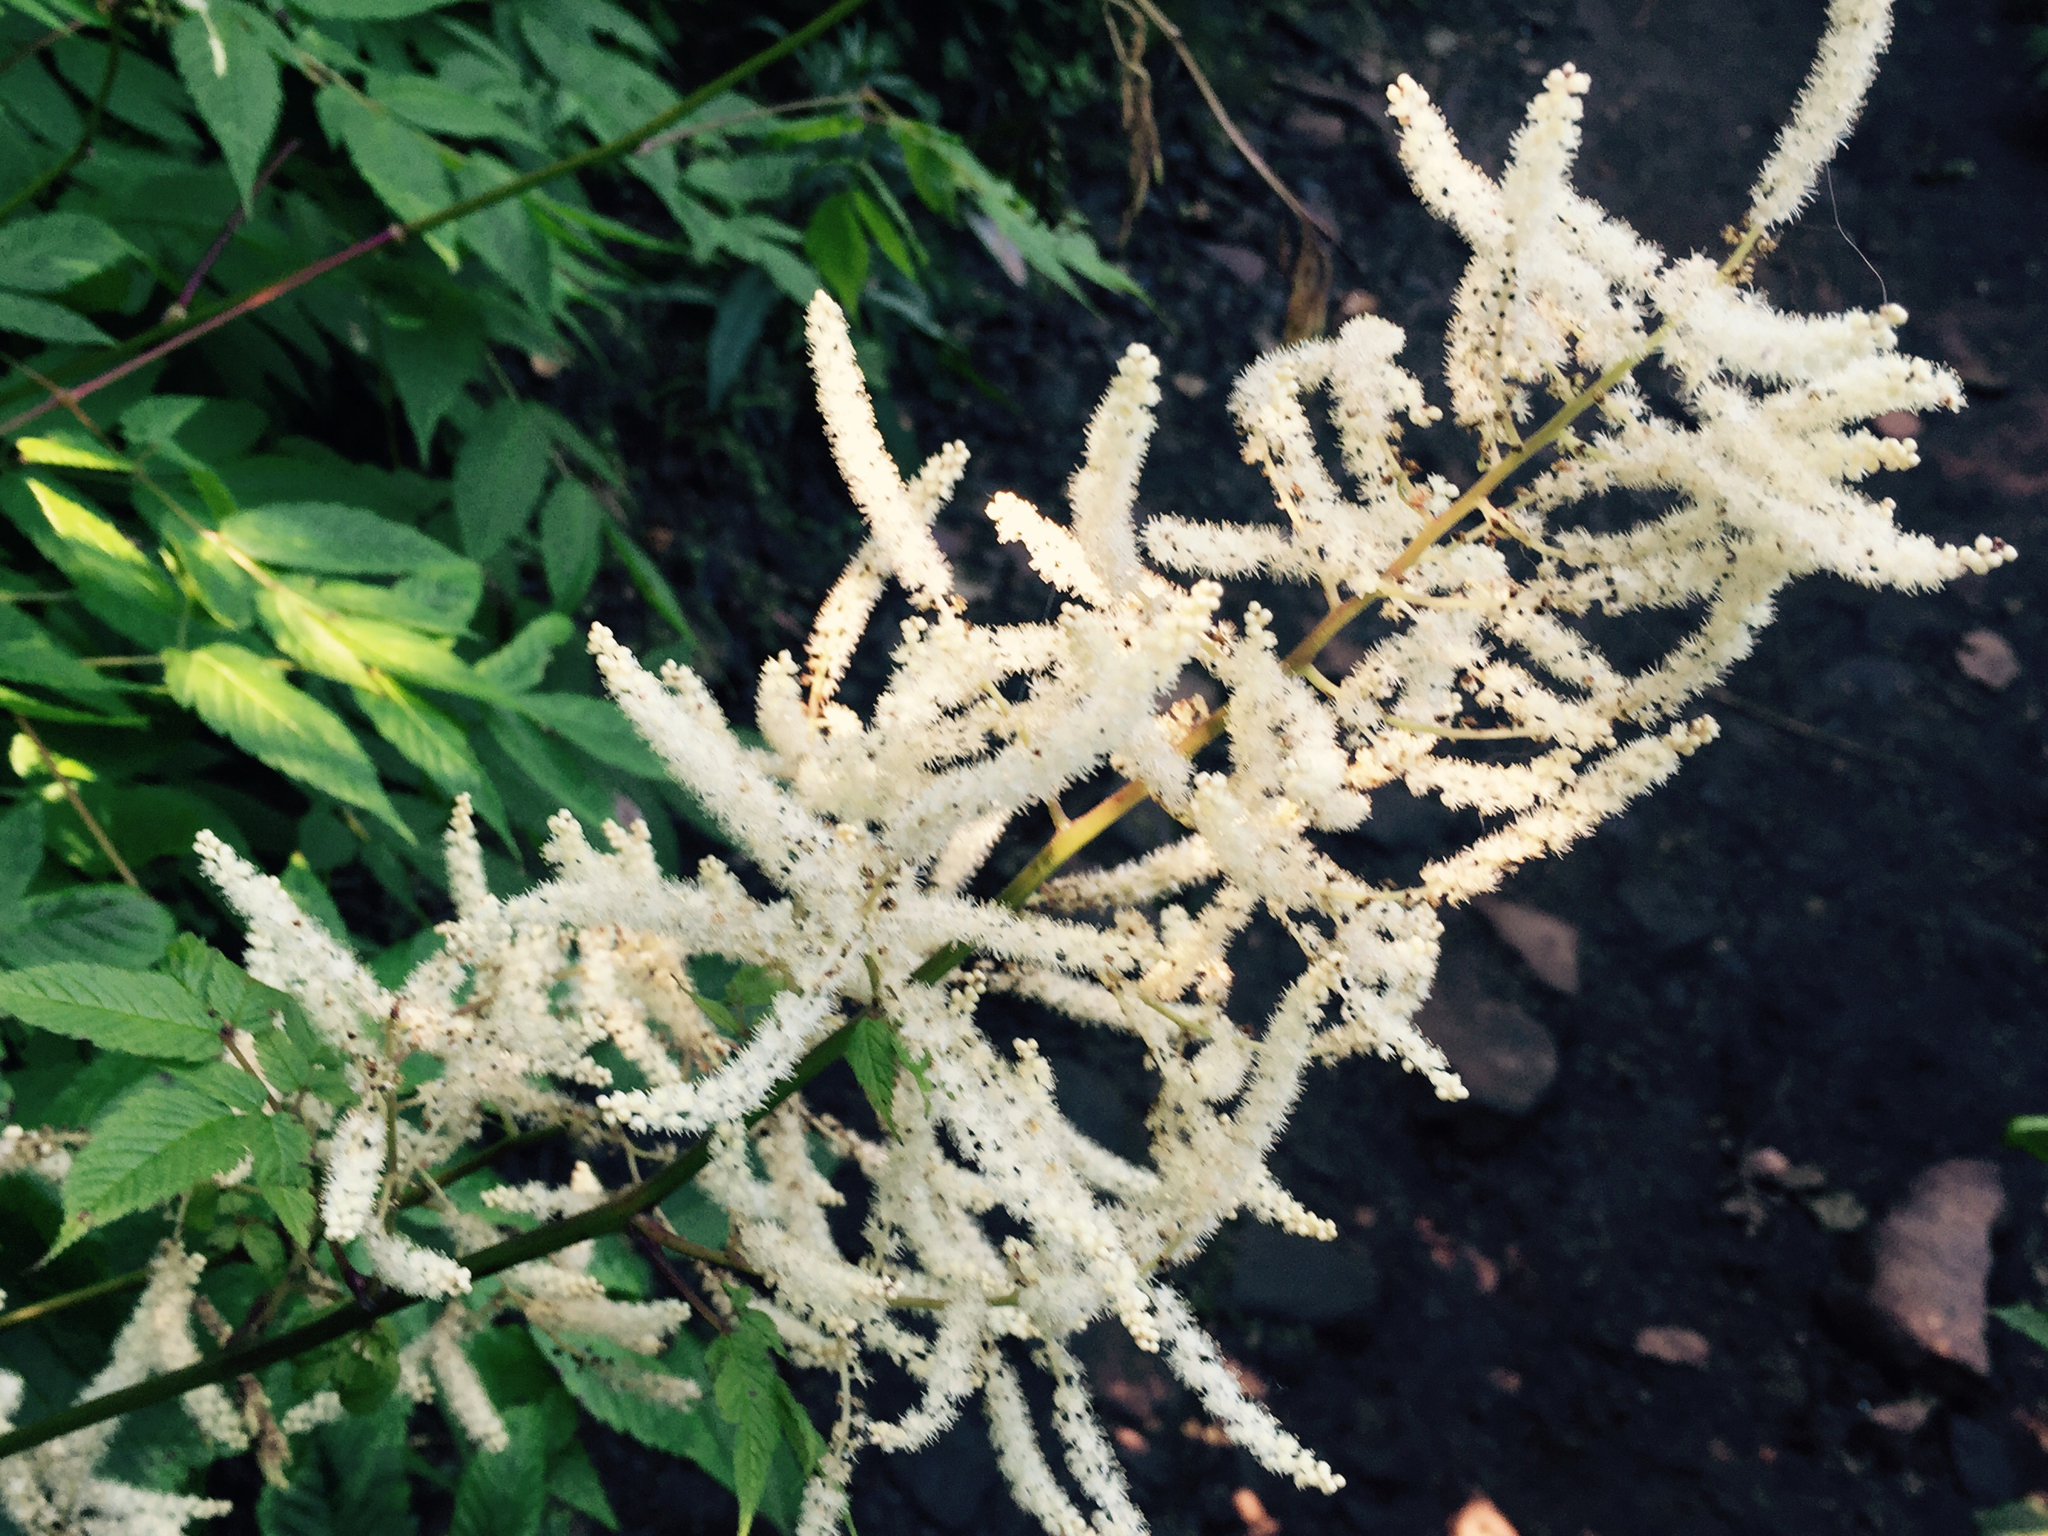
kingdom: Plantae
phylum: Tracheophyta
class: Magnoliopsida
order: Rosales
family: Rosaceae
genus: Aruncus
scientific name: Aruncus dioicus
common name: Buck's-beard
